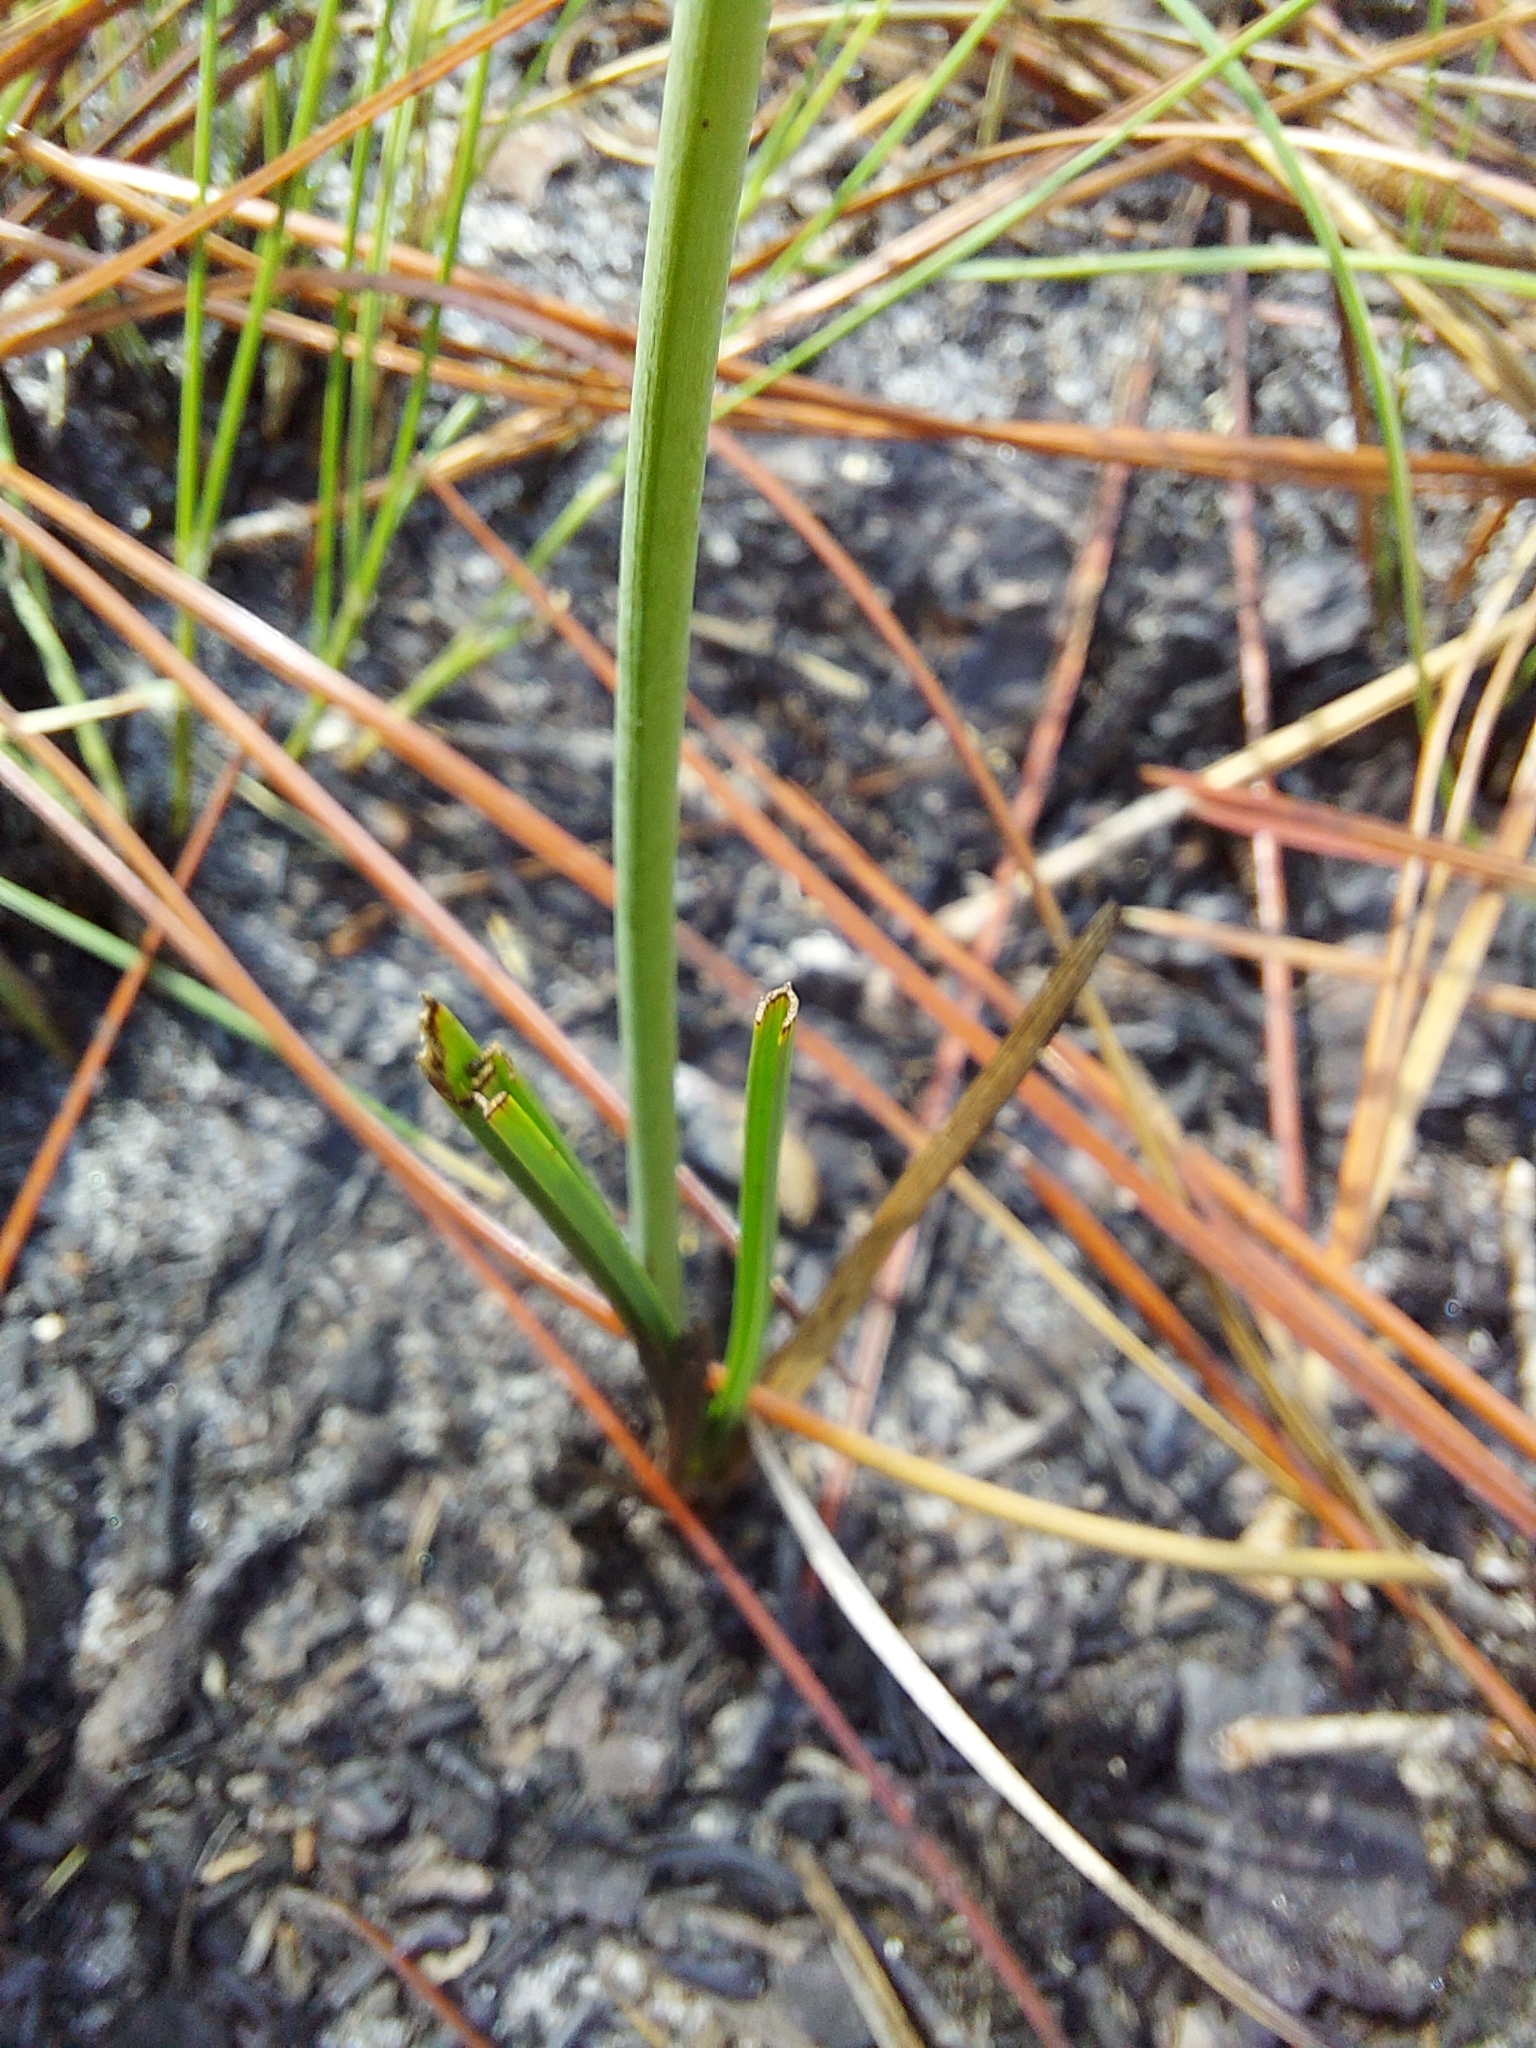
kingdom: Plantae
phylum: Tracheophyta
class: Liliopsida
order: Liliales
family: Melanthiaceae
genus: Schoenocaulon
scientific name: Schoenocaulon dubium
